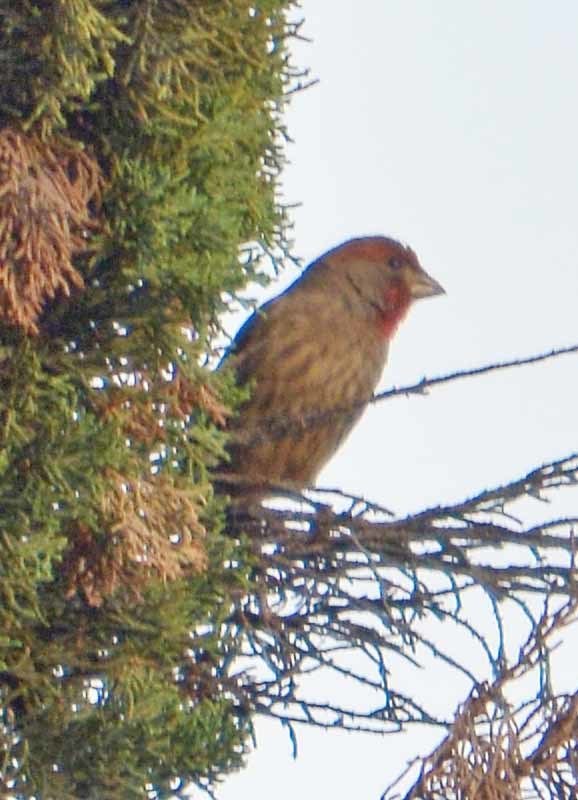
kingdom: Animalia
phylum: Chordata
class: Aves
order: Passeriformes
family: Fringillidae
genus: Haemorhous
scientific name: Haemorhous mexicanus
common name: House finch
